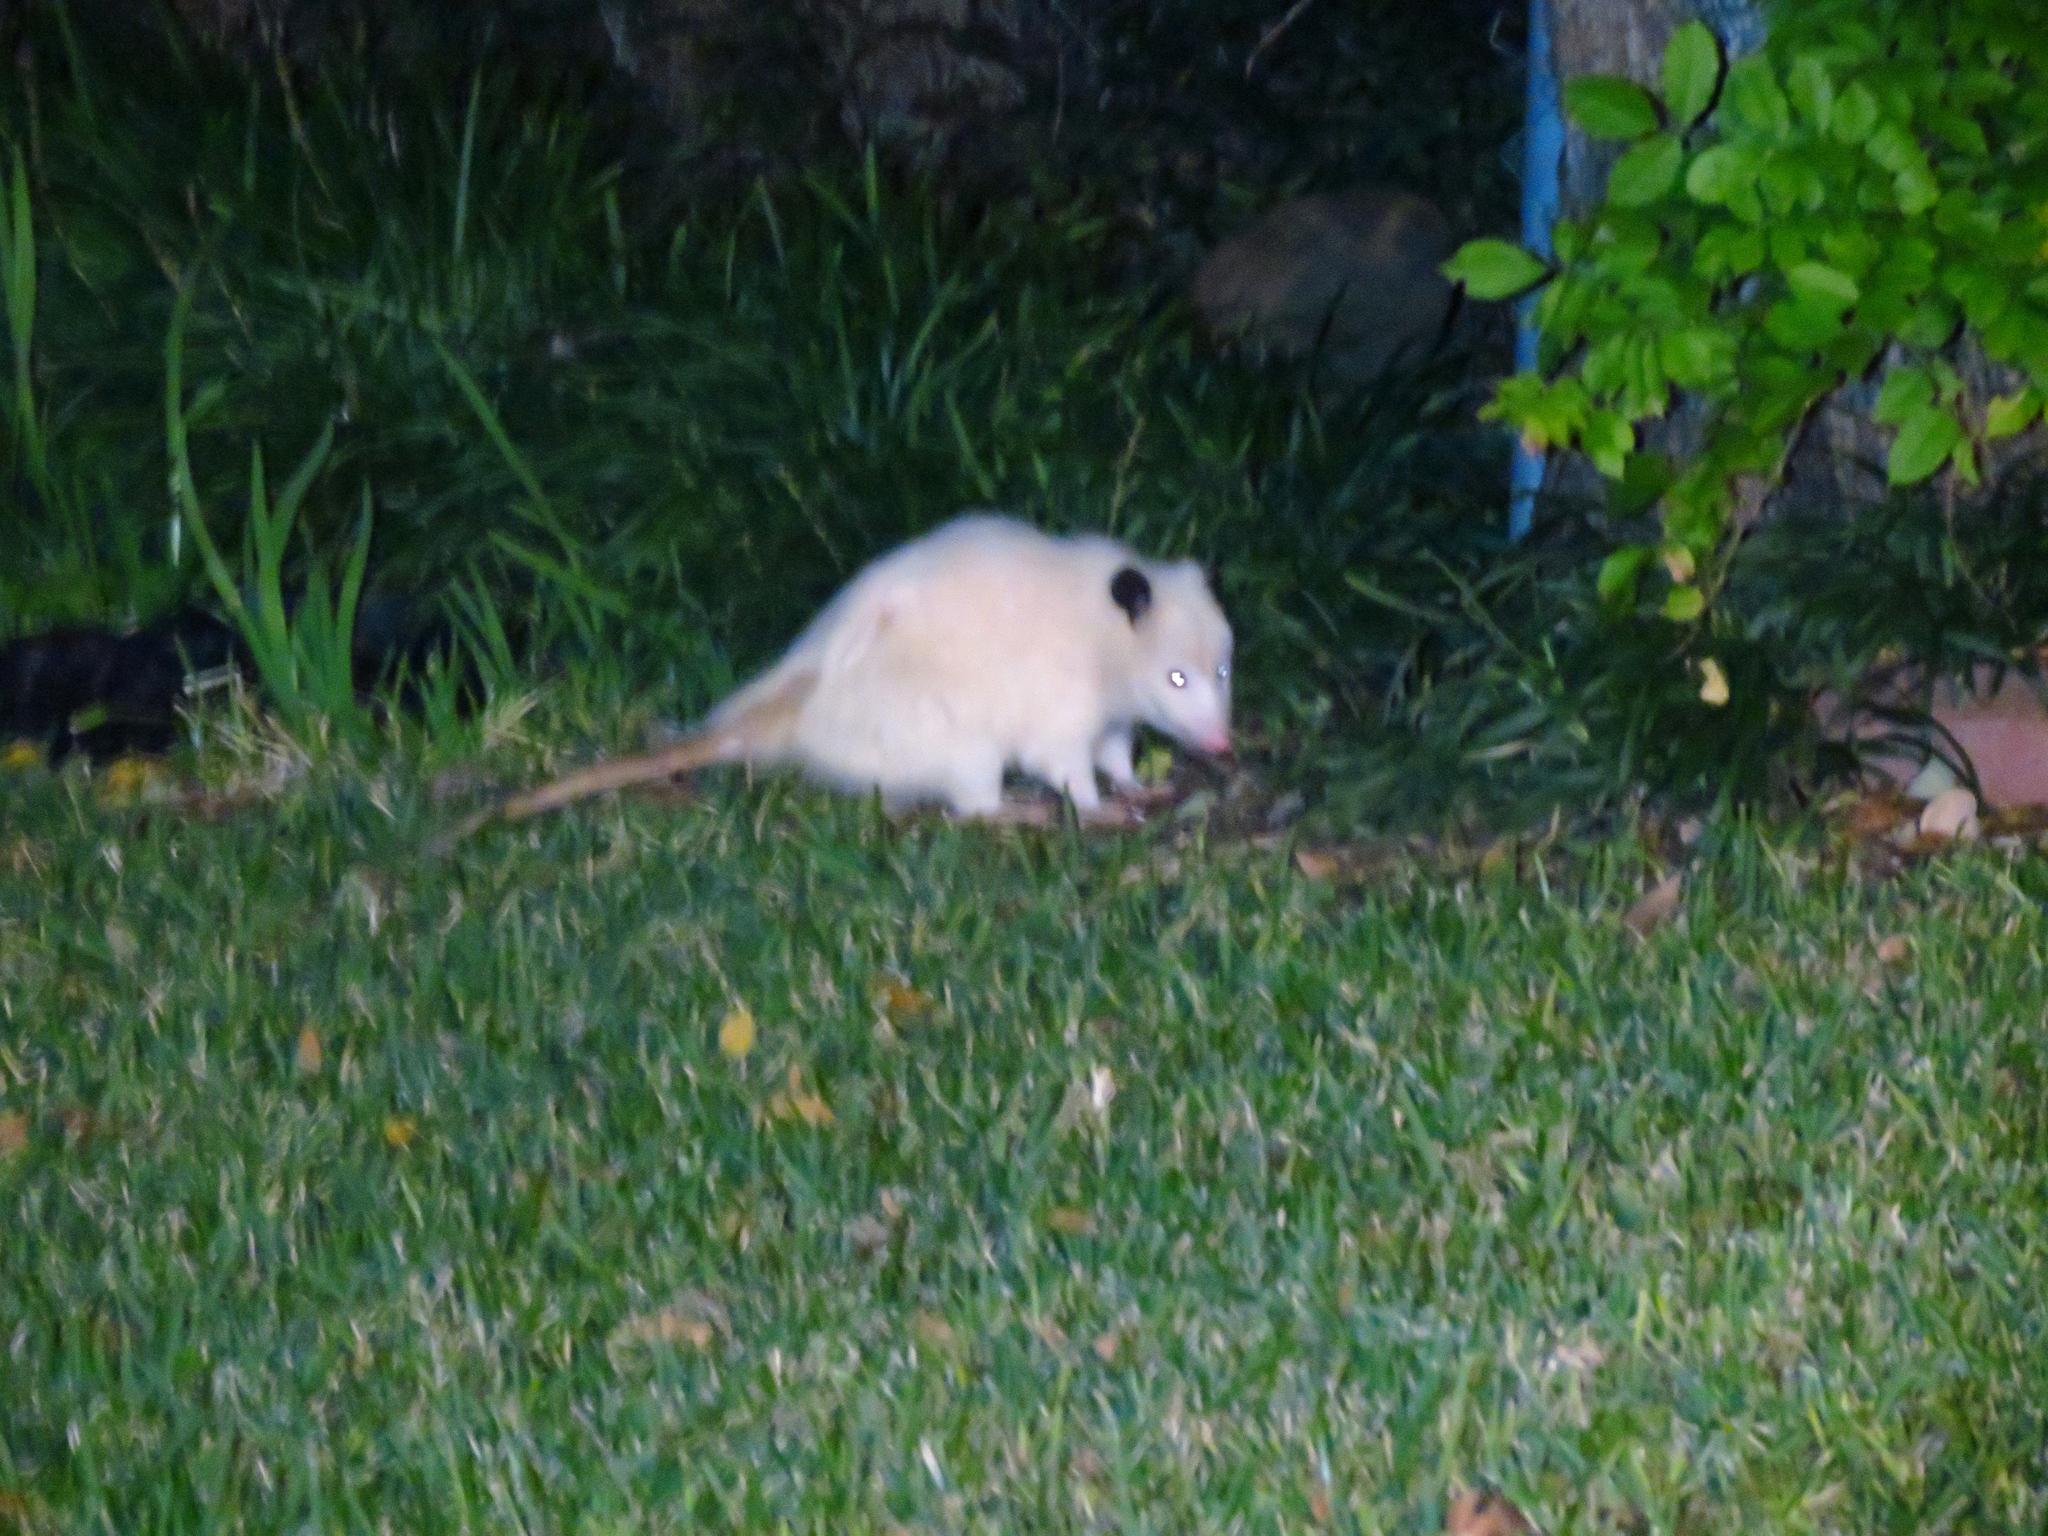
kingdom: Animalia
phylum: Chordata
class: Mammalia
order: Didelphimorphia
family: Didelphidae
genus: Didelphis
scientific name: Didelphis virginiana
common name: Virginia opossum
